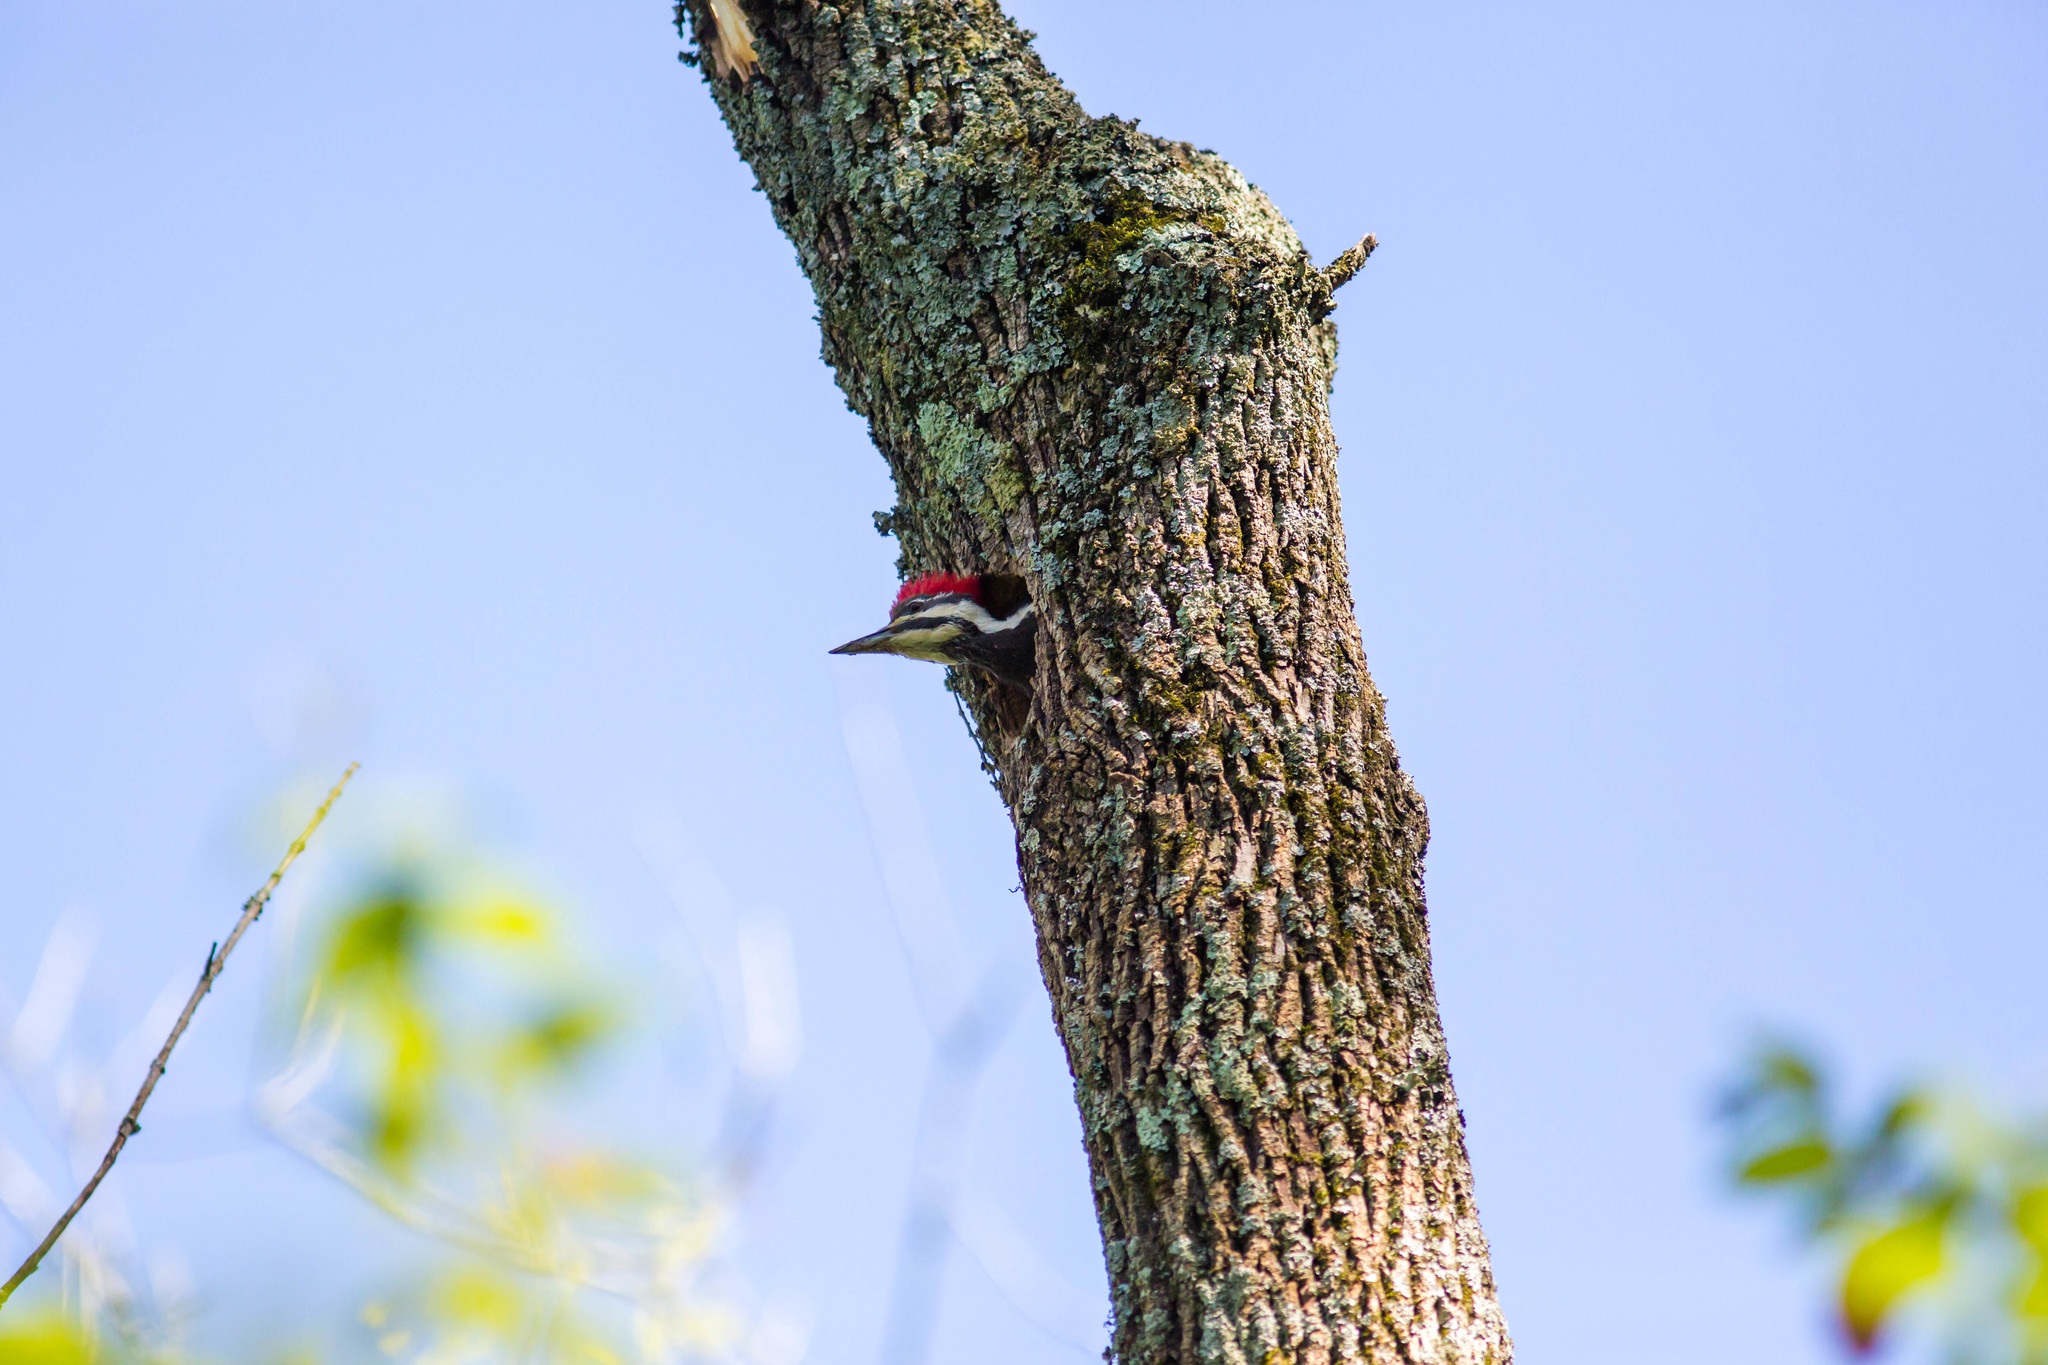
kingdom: Animalia
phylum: Chordata
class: Aves
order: Piciformes
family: Picidae
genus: Dryocopus
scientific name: Dryocopus pileatus
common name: Pileated woodpecker
